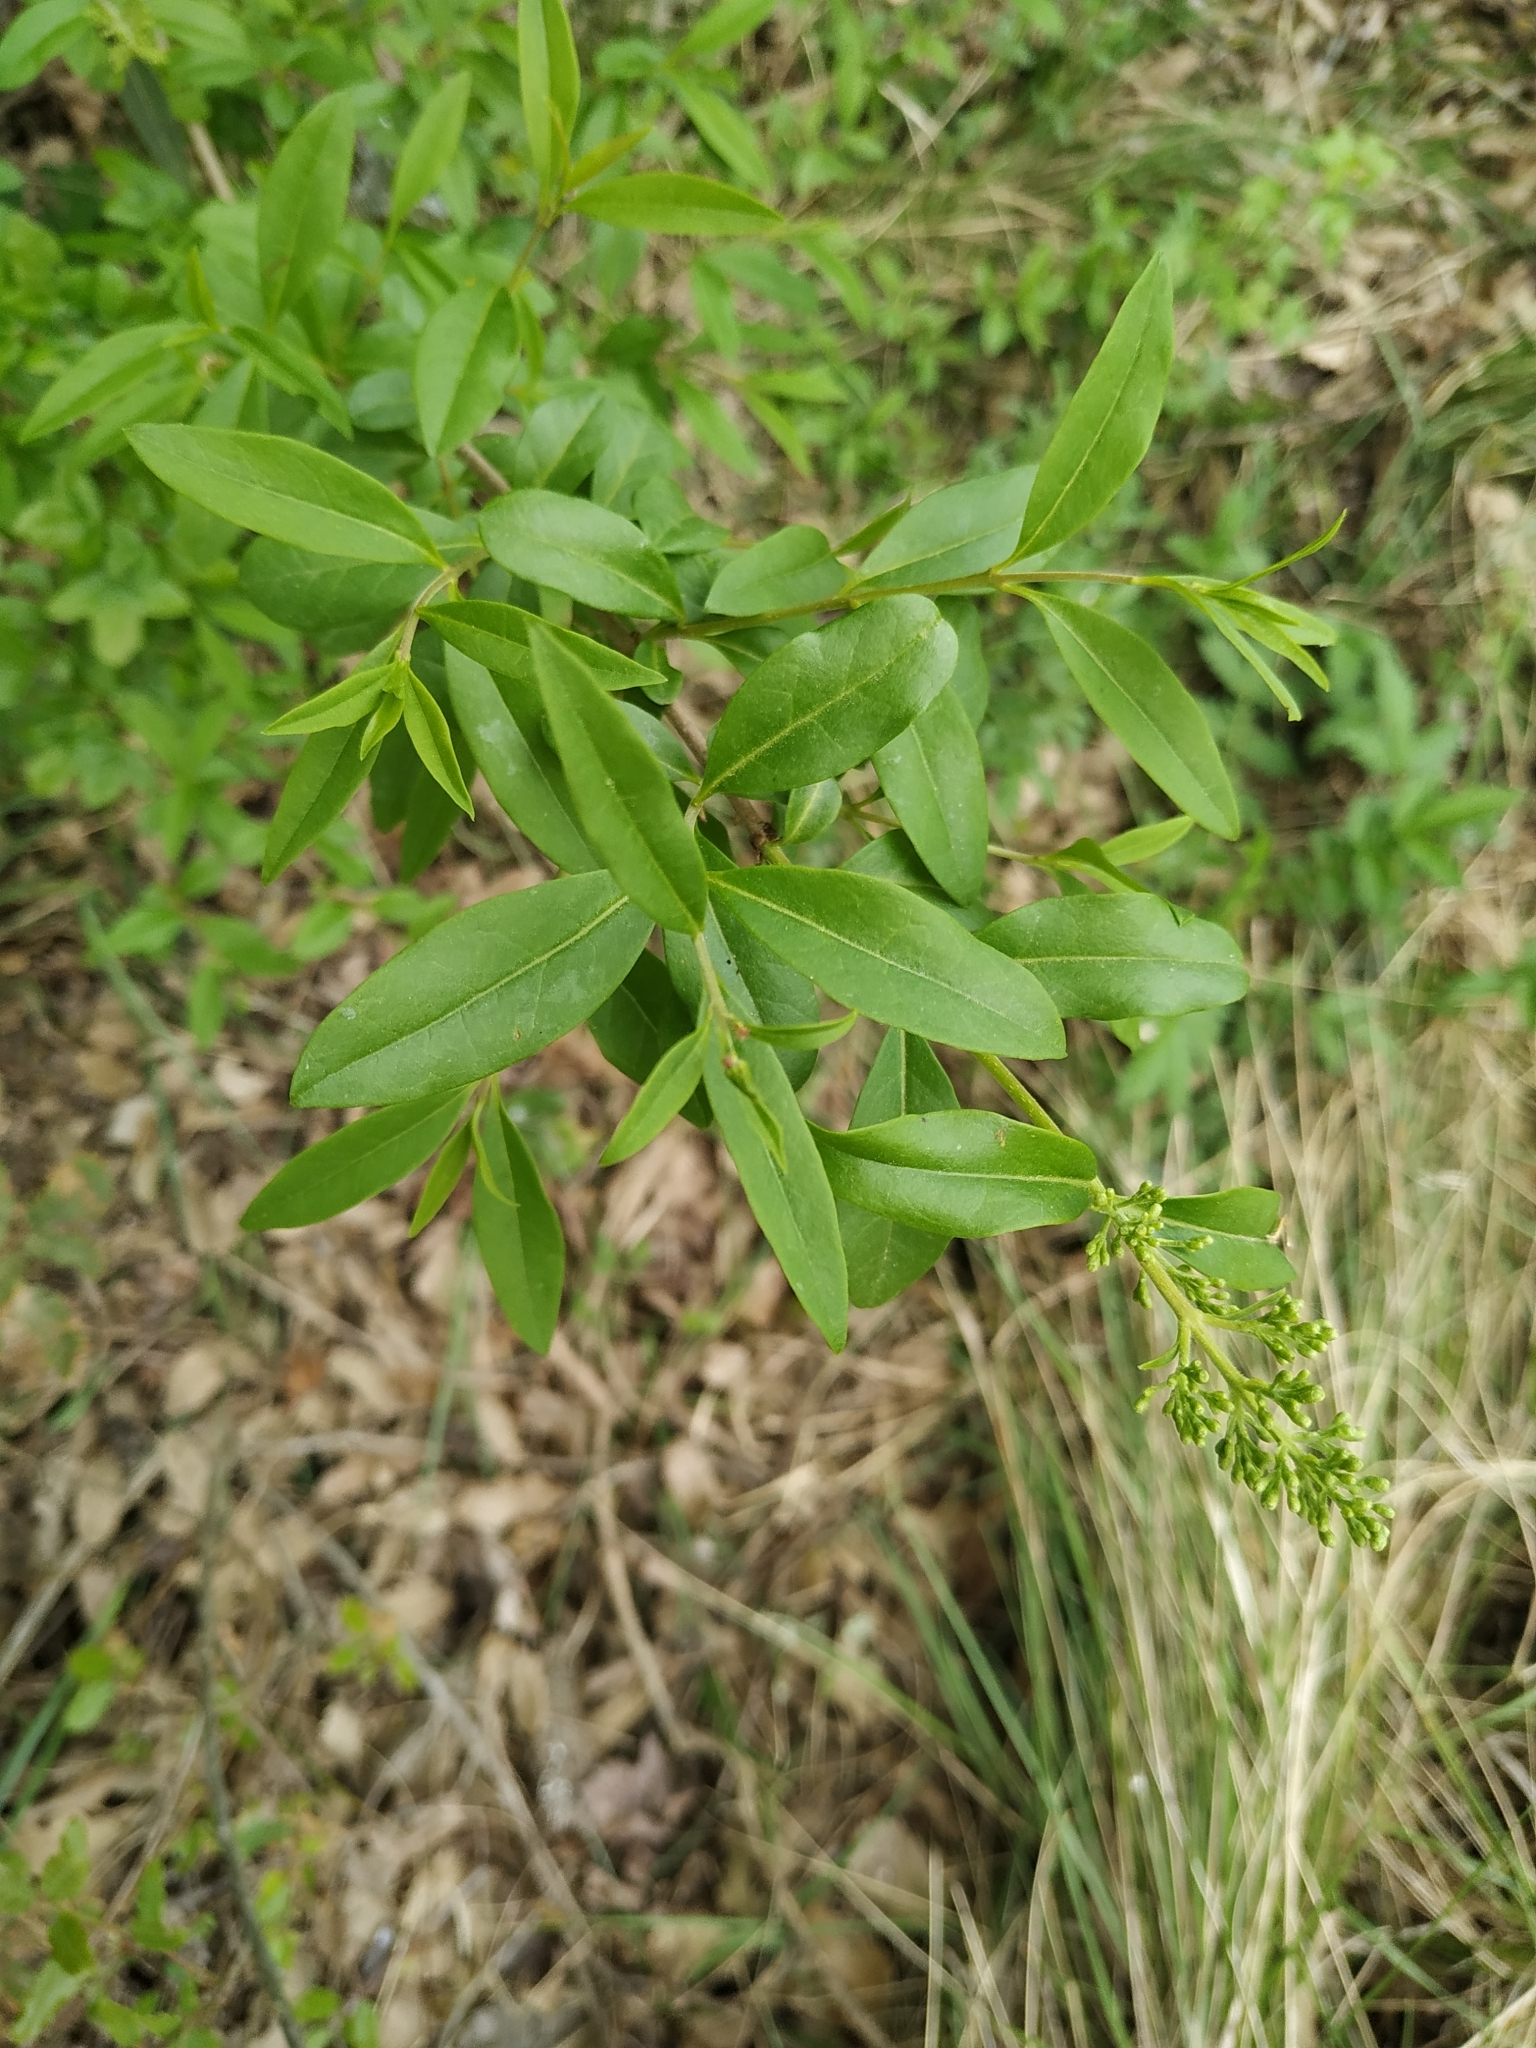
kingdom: Plantae
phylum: Tracheophyta
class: Magnoliopsida
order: Lamiales
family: Oleaceae
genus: Ligustrum
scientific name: Ligustrum vulgare
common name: Wild privet
